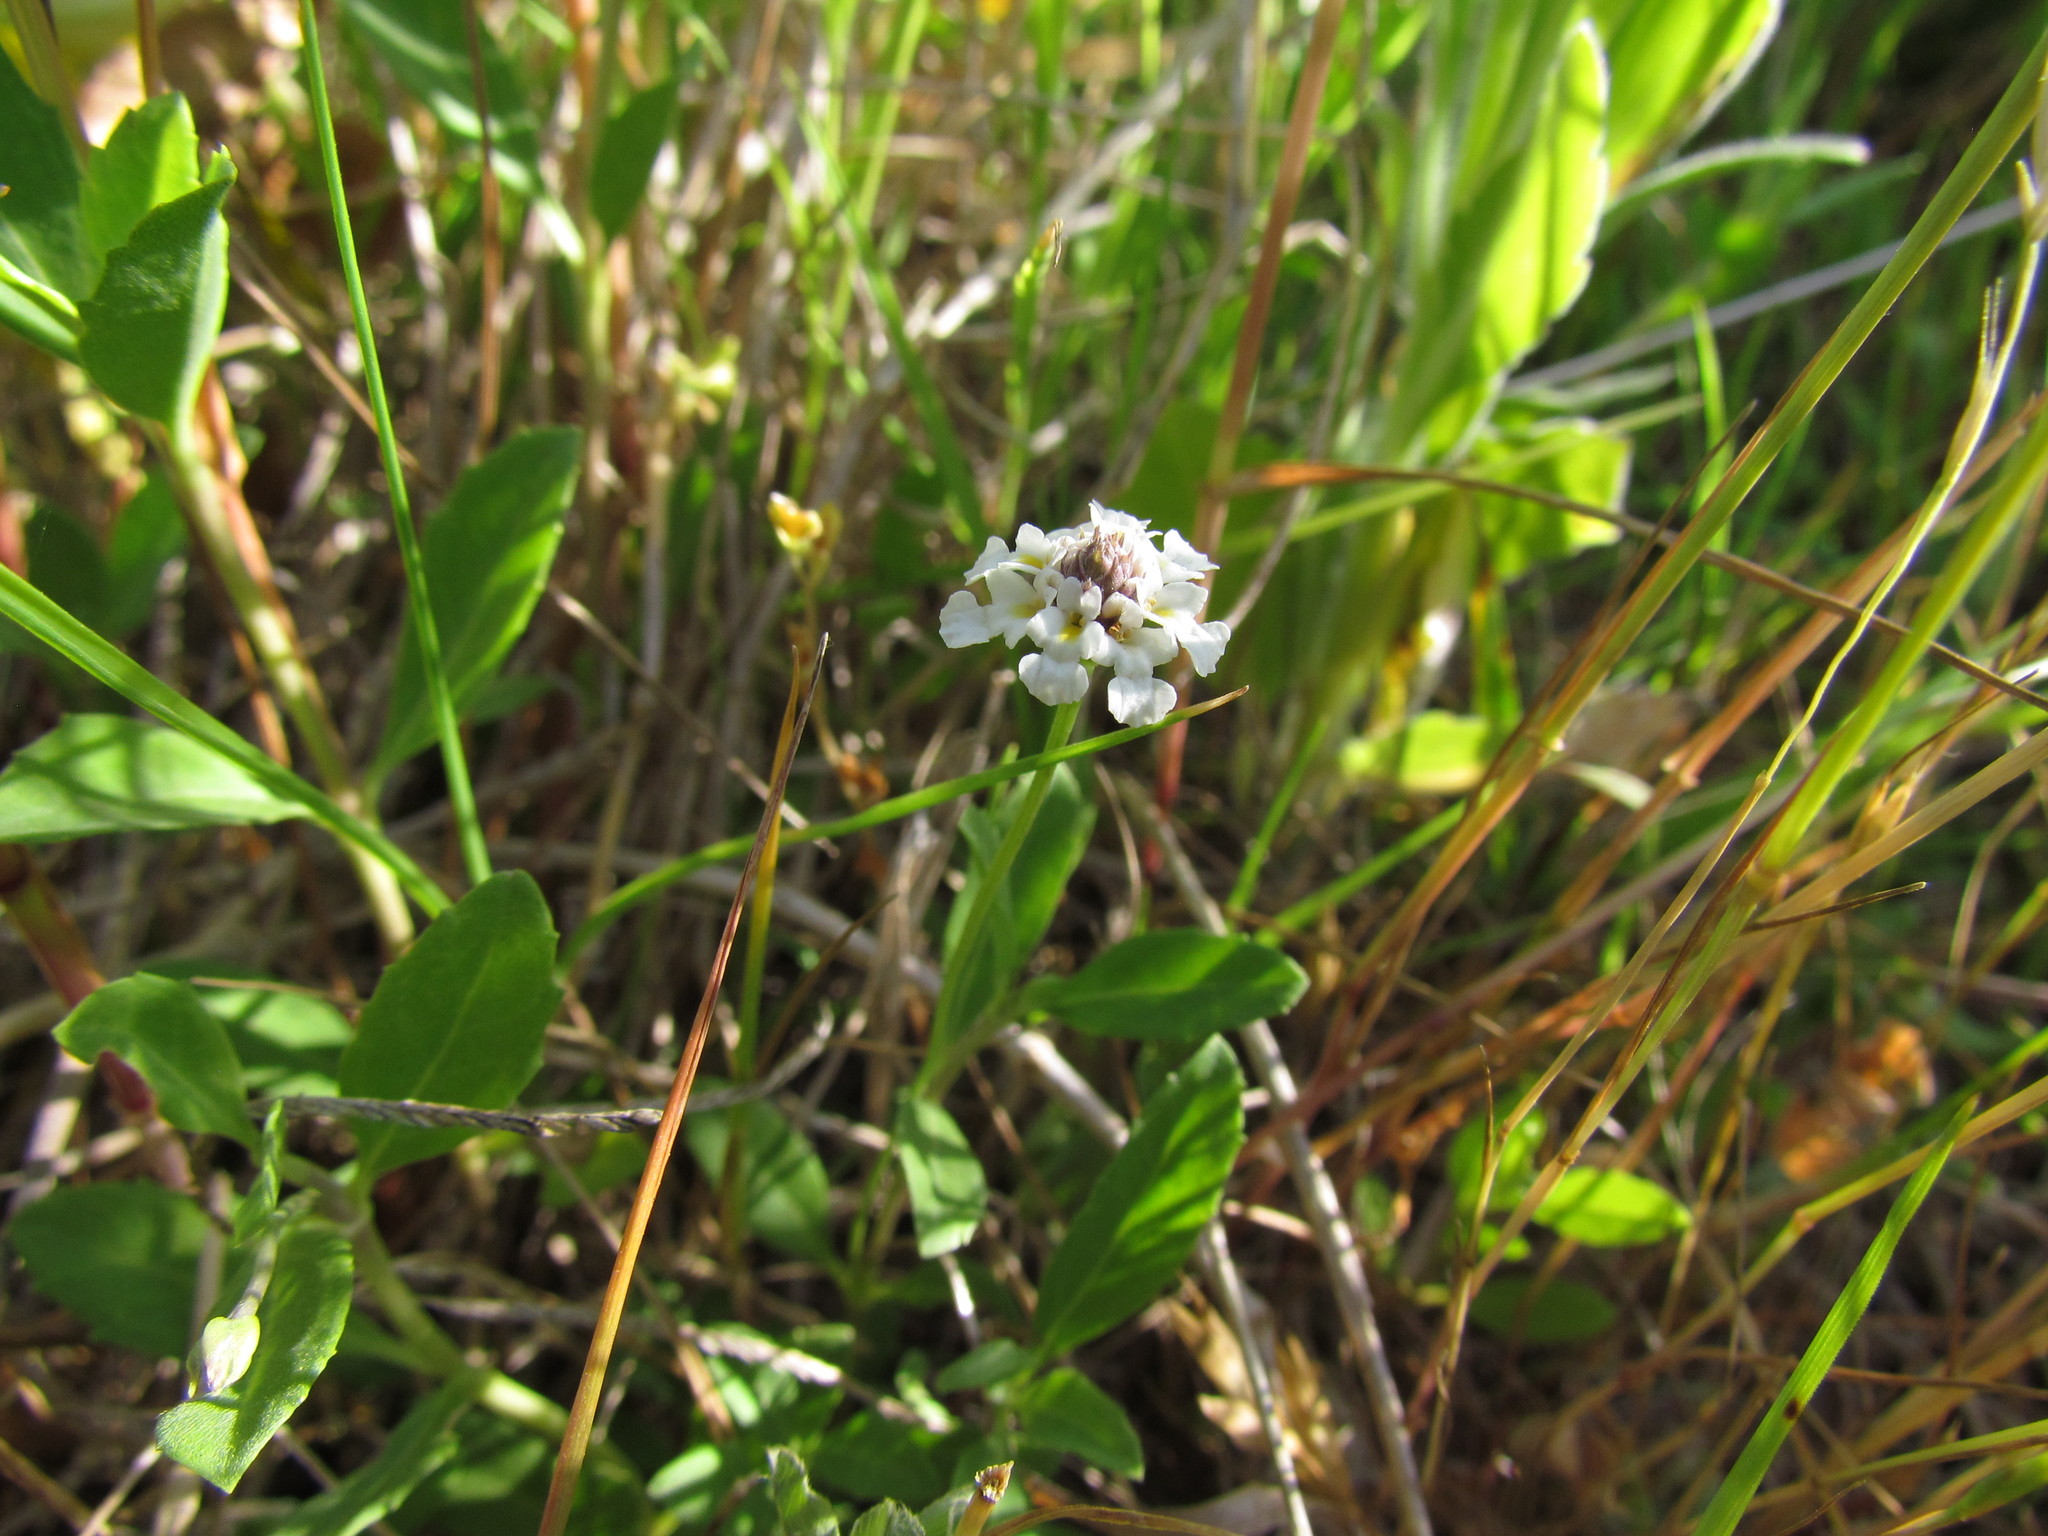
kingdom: Plantae
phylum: Tracheophyta
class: Magnoliopsida
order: Lamiales
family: Verbenaceae
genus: Phyla
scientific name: Phyla nodiflora
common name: Frogfruit
